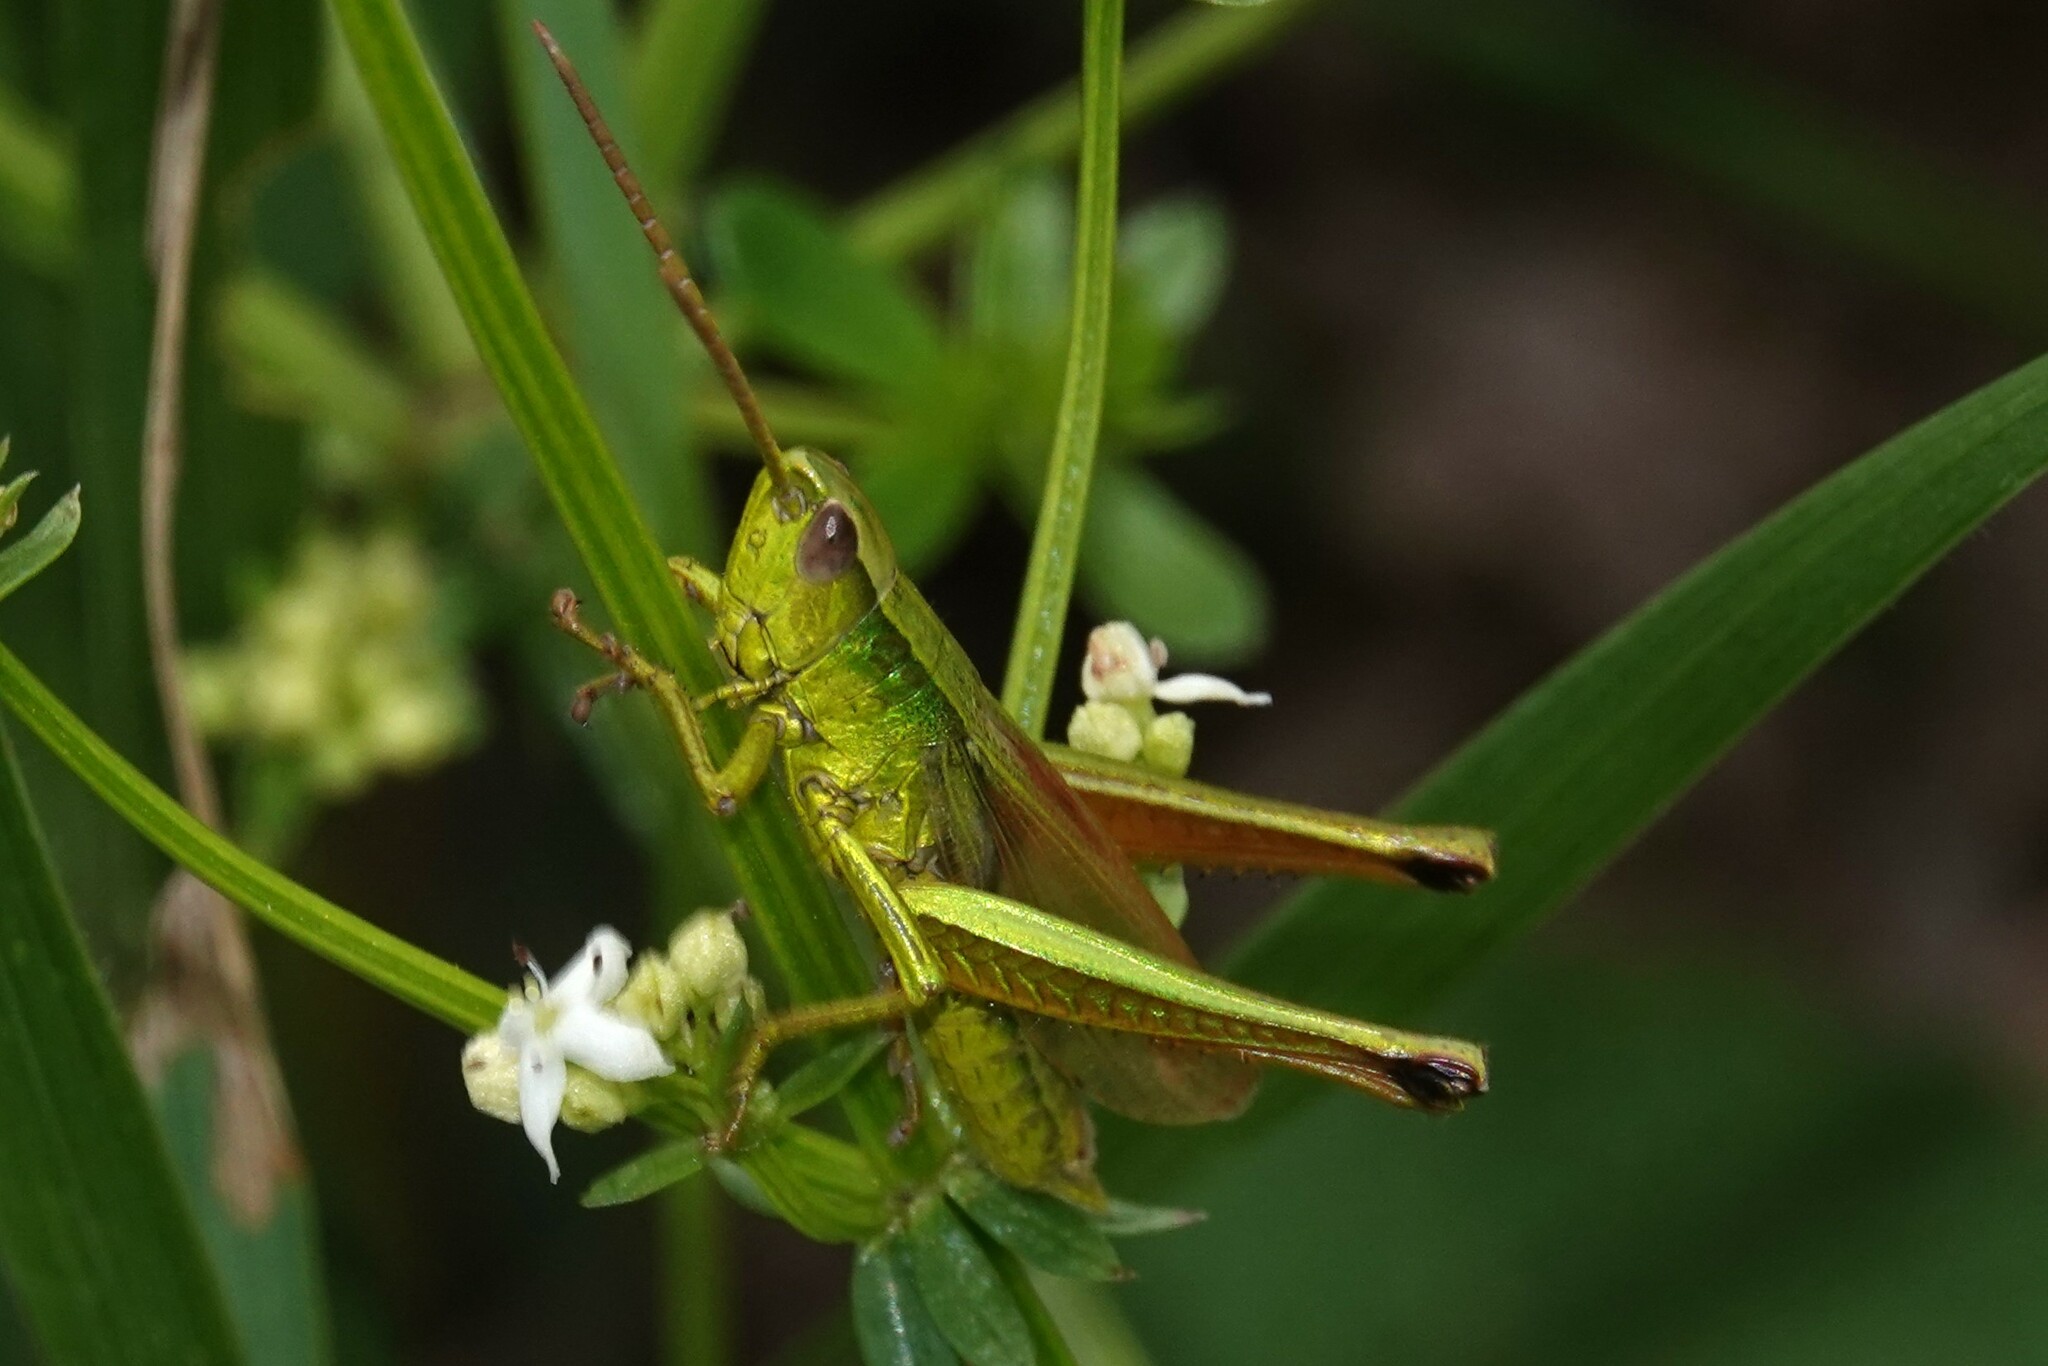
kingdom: Animalia
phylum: Arthropoda
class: Insecta
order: Orthoptera
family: Acrididae
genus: Chrysochraon
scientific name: Chrysochraon dispar
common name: Large gold grasshopper
